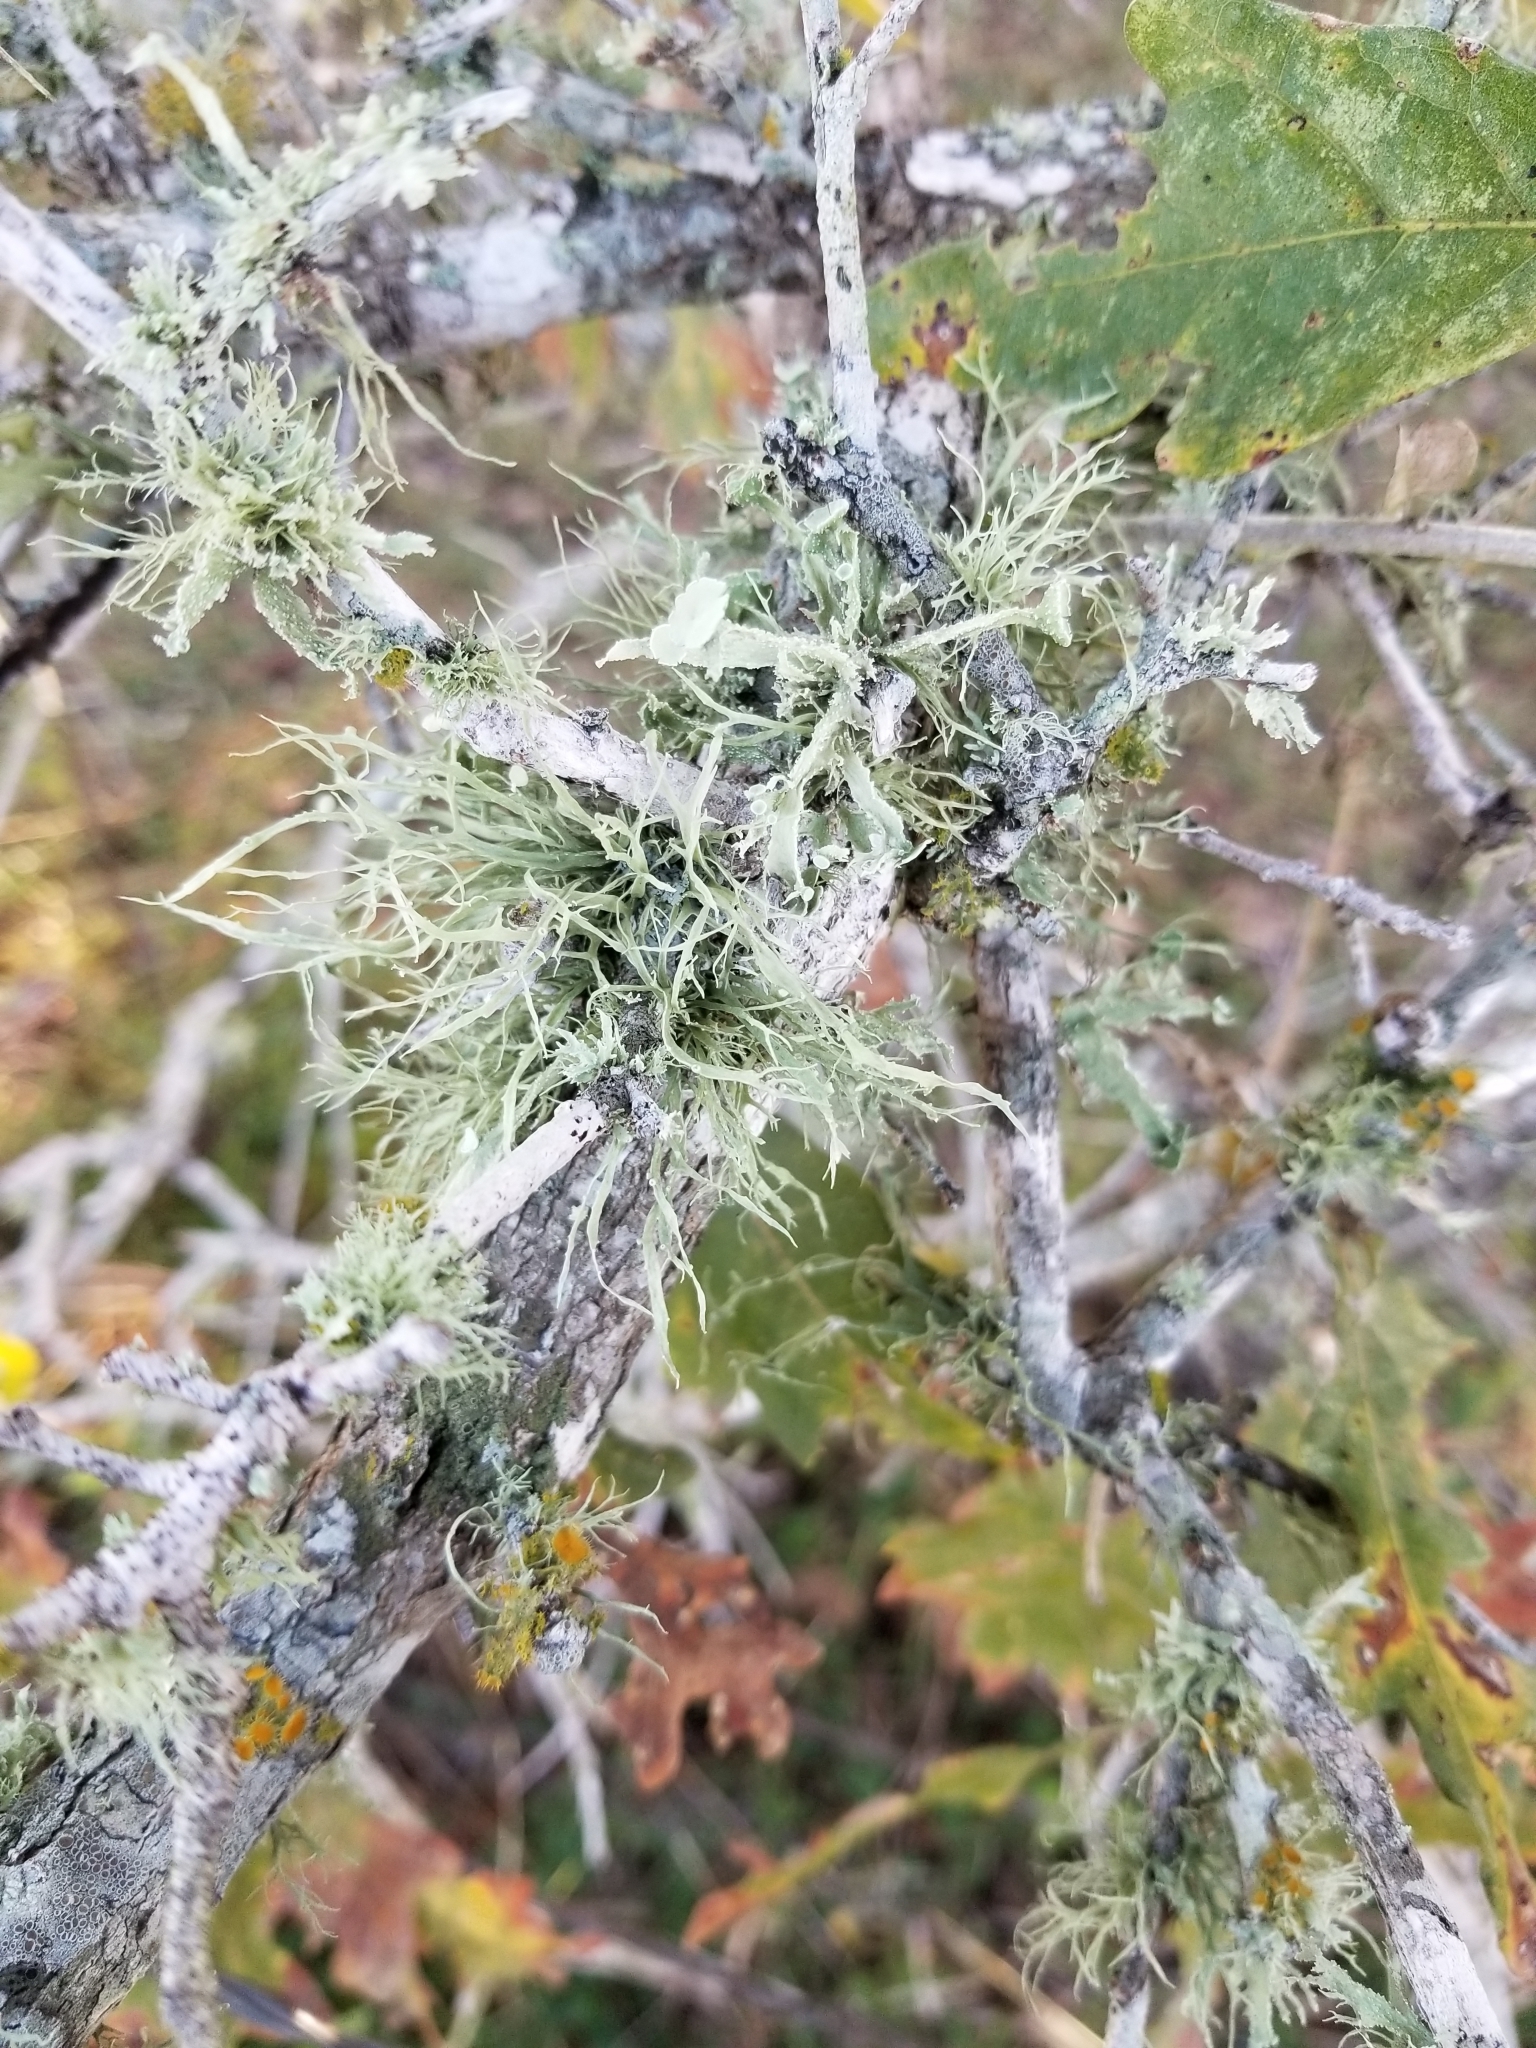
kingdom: Fungi
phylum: Ascomycota
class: Lecanoromycetes
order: Lecanorales
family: Ramalinaceae
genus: Ramalina
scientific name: Ramalina celastri
